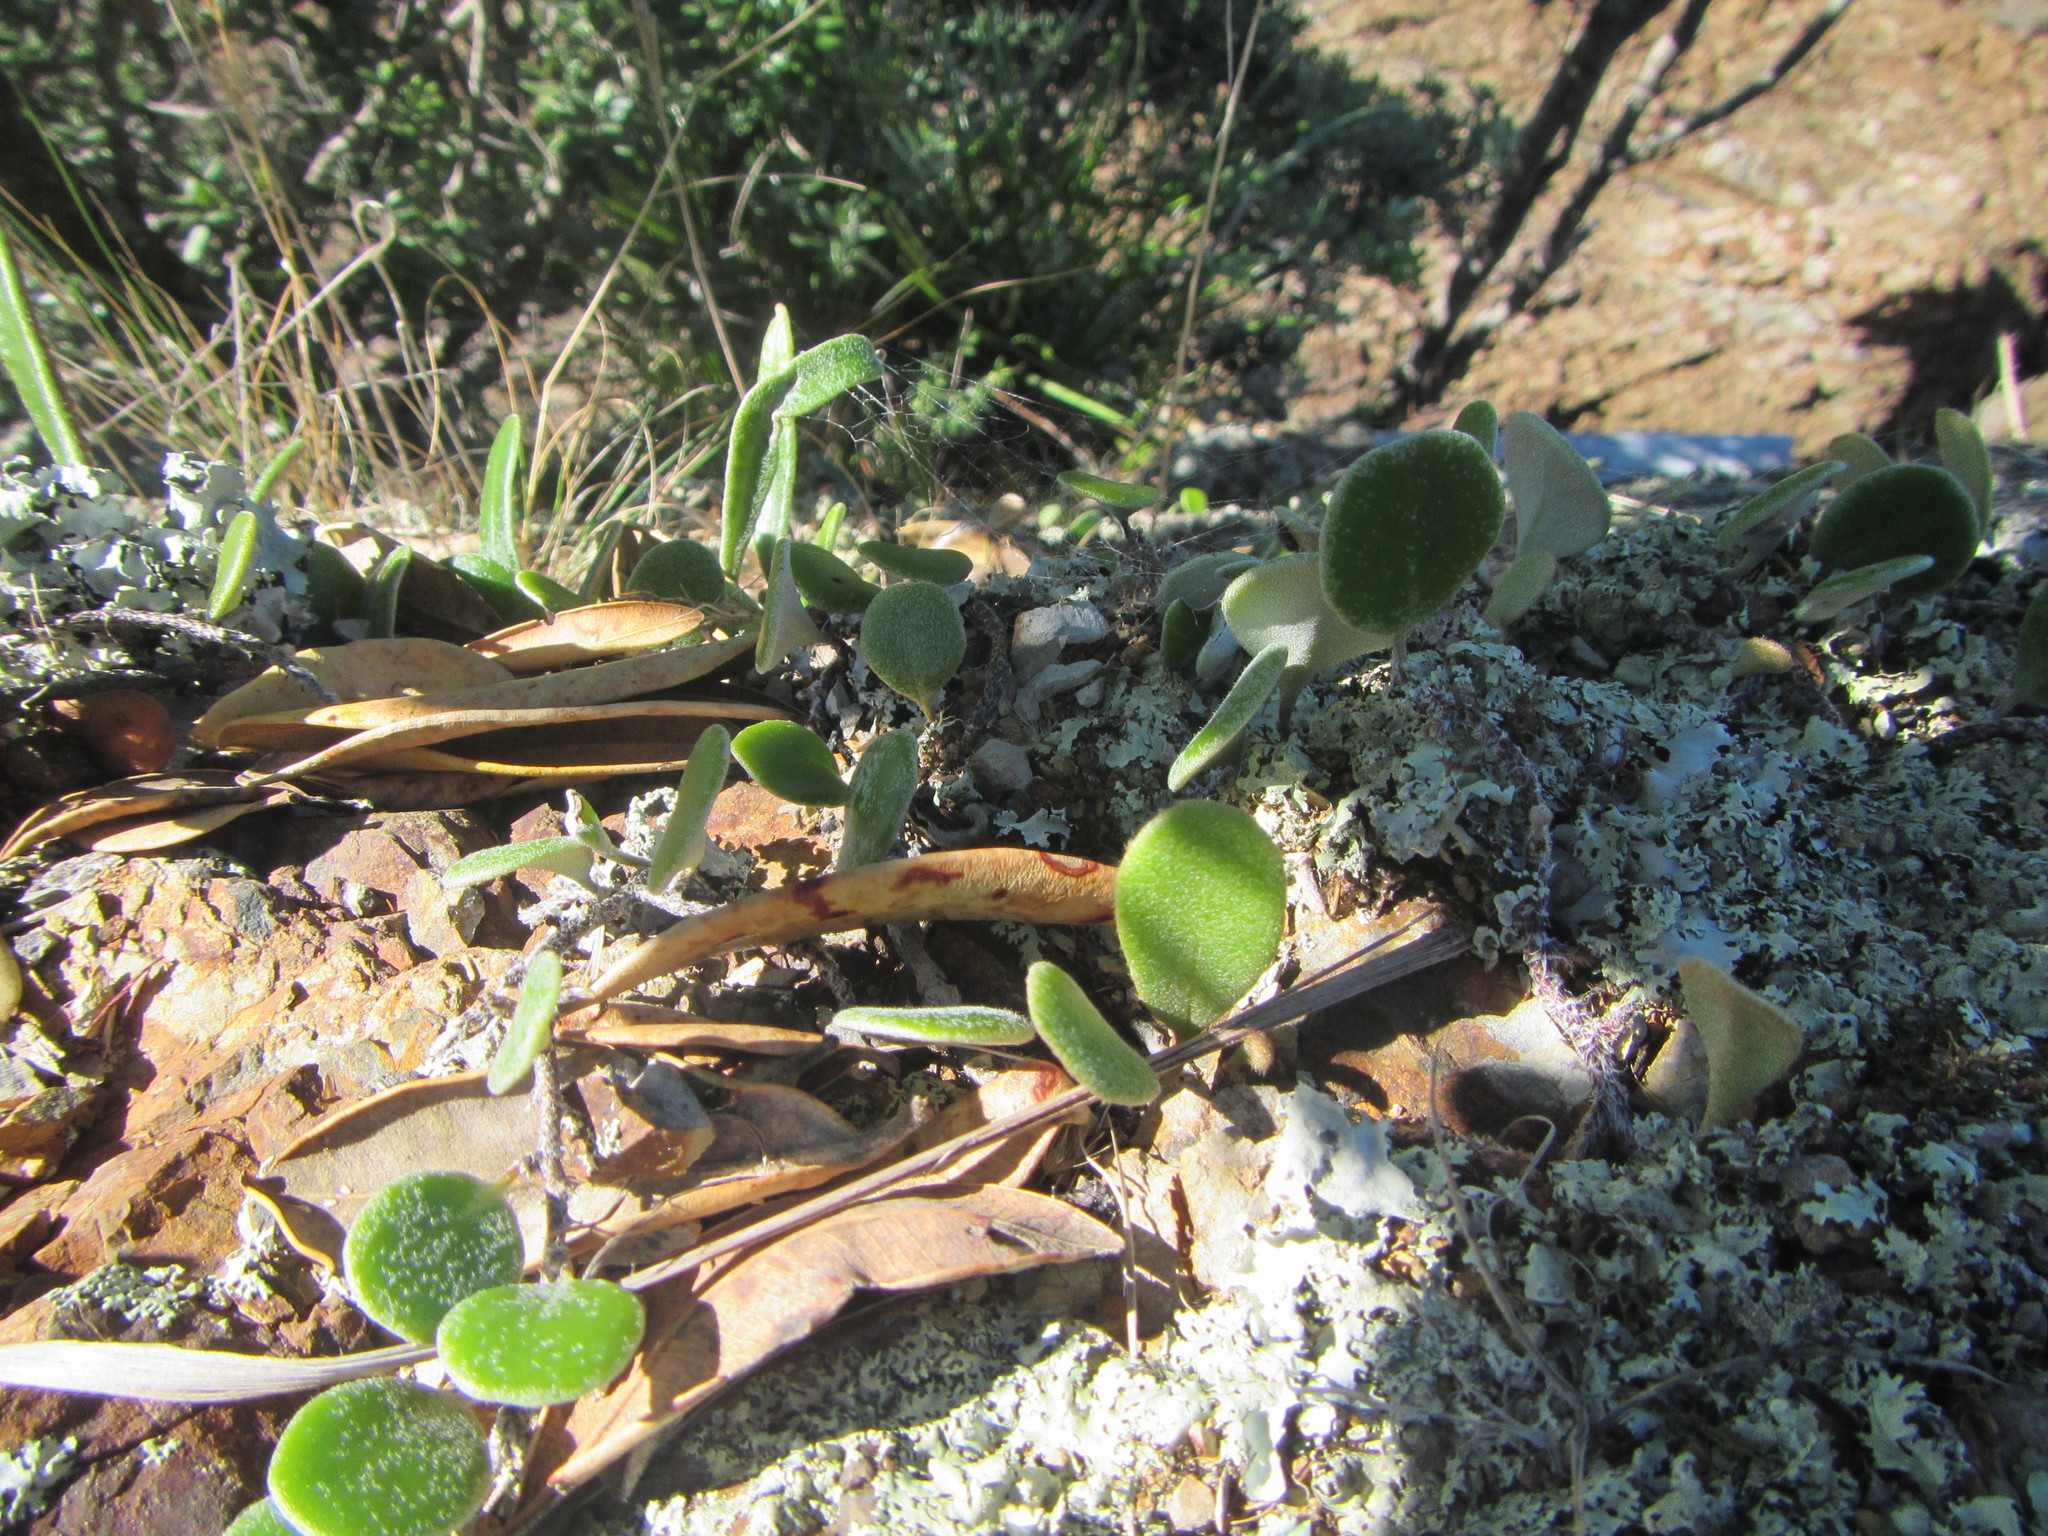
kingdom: Plantae
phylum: Tracheophyta
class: Polypodiopsida
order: Polypodiales
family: Polypodiaceae
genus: Pyrrosia
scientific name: Pyrrosia eleagnifolia
